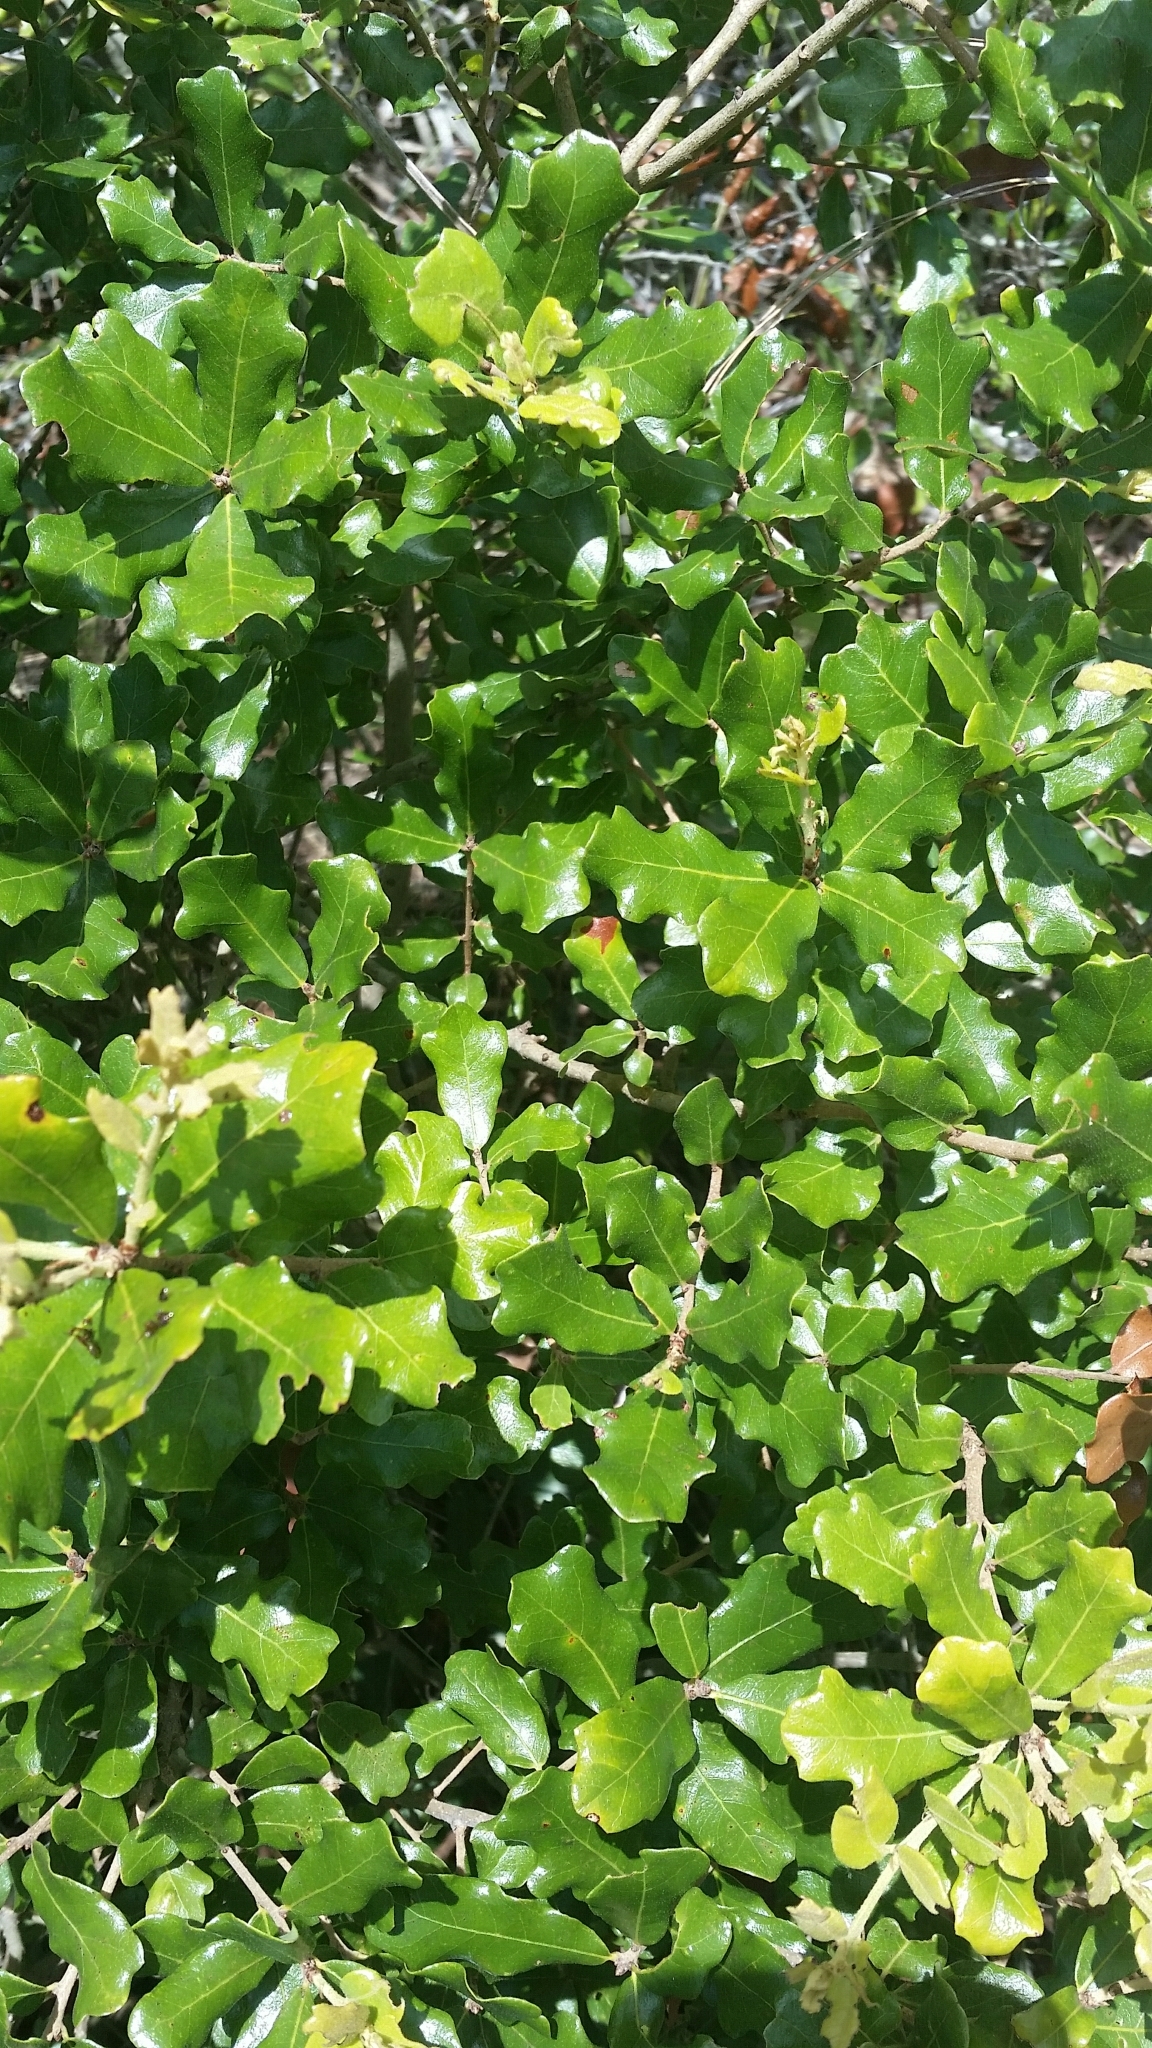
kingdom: Plantae
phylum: Tracheophyta
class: Magnoliopsida
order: Fagales
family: Fagaceae
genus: Quercus
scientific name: Quercus chapmanii
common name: Chapman oak
